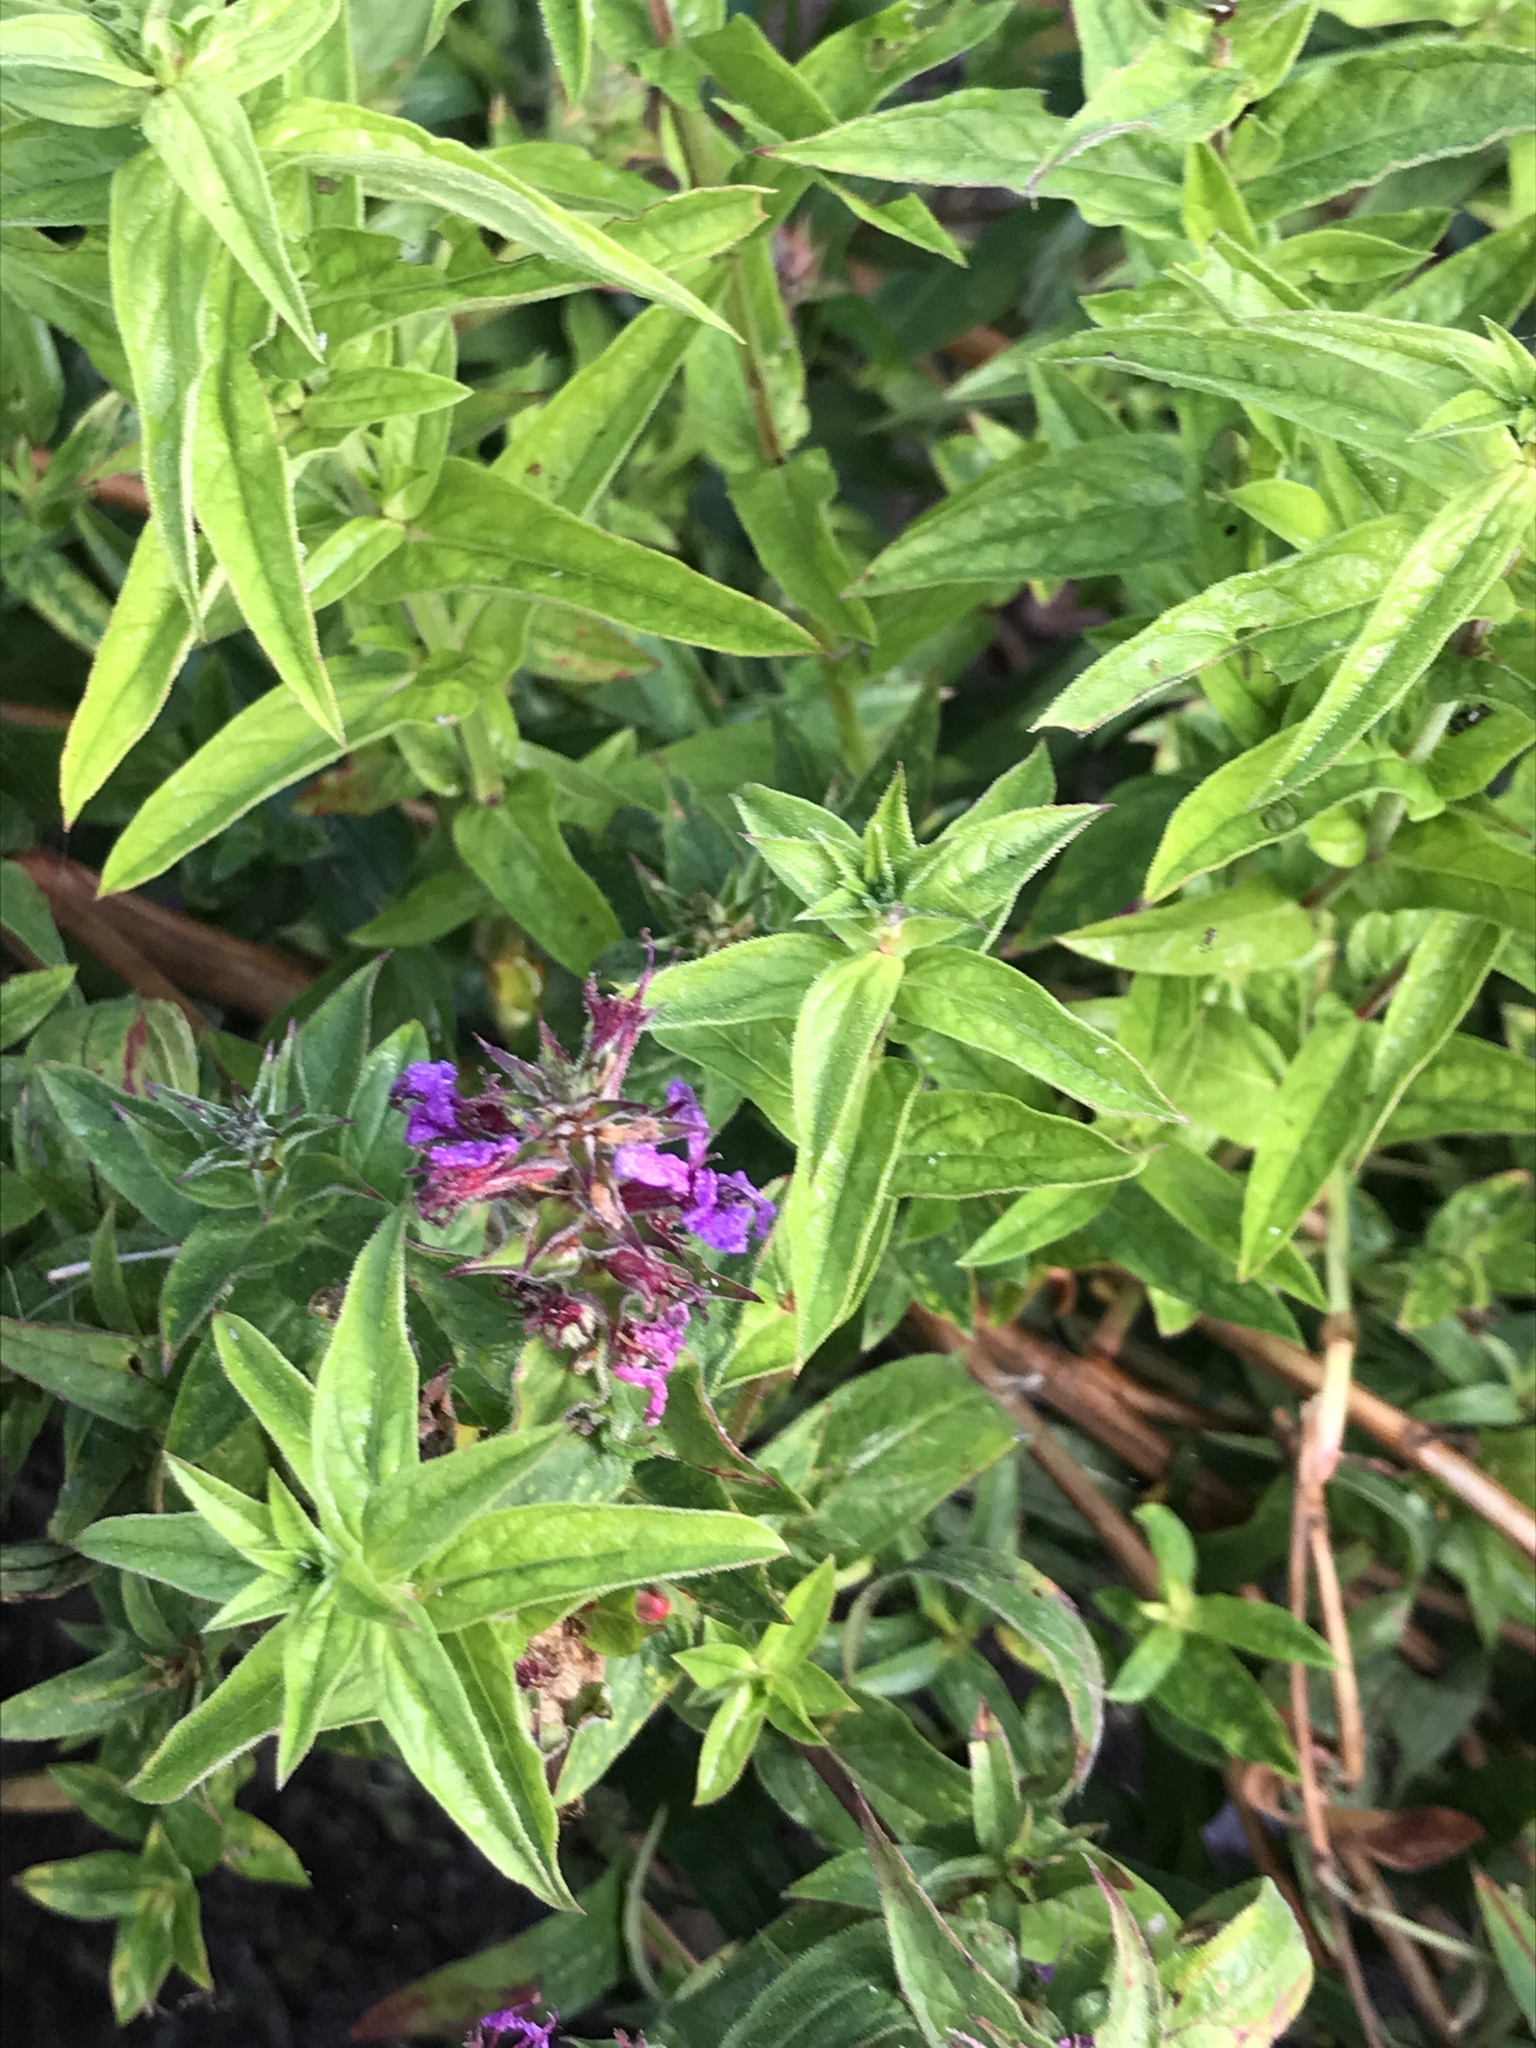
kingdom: Plantae
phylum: Tracheophyta
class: Magnoliopsida
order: Myrtales
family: Lythraceae
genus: Lythrum
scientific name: Lythrum salicaria
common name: Purple loosestrife
